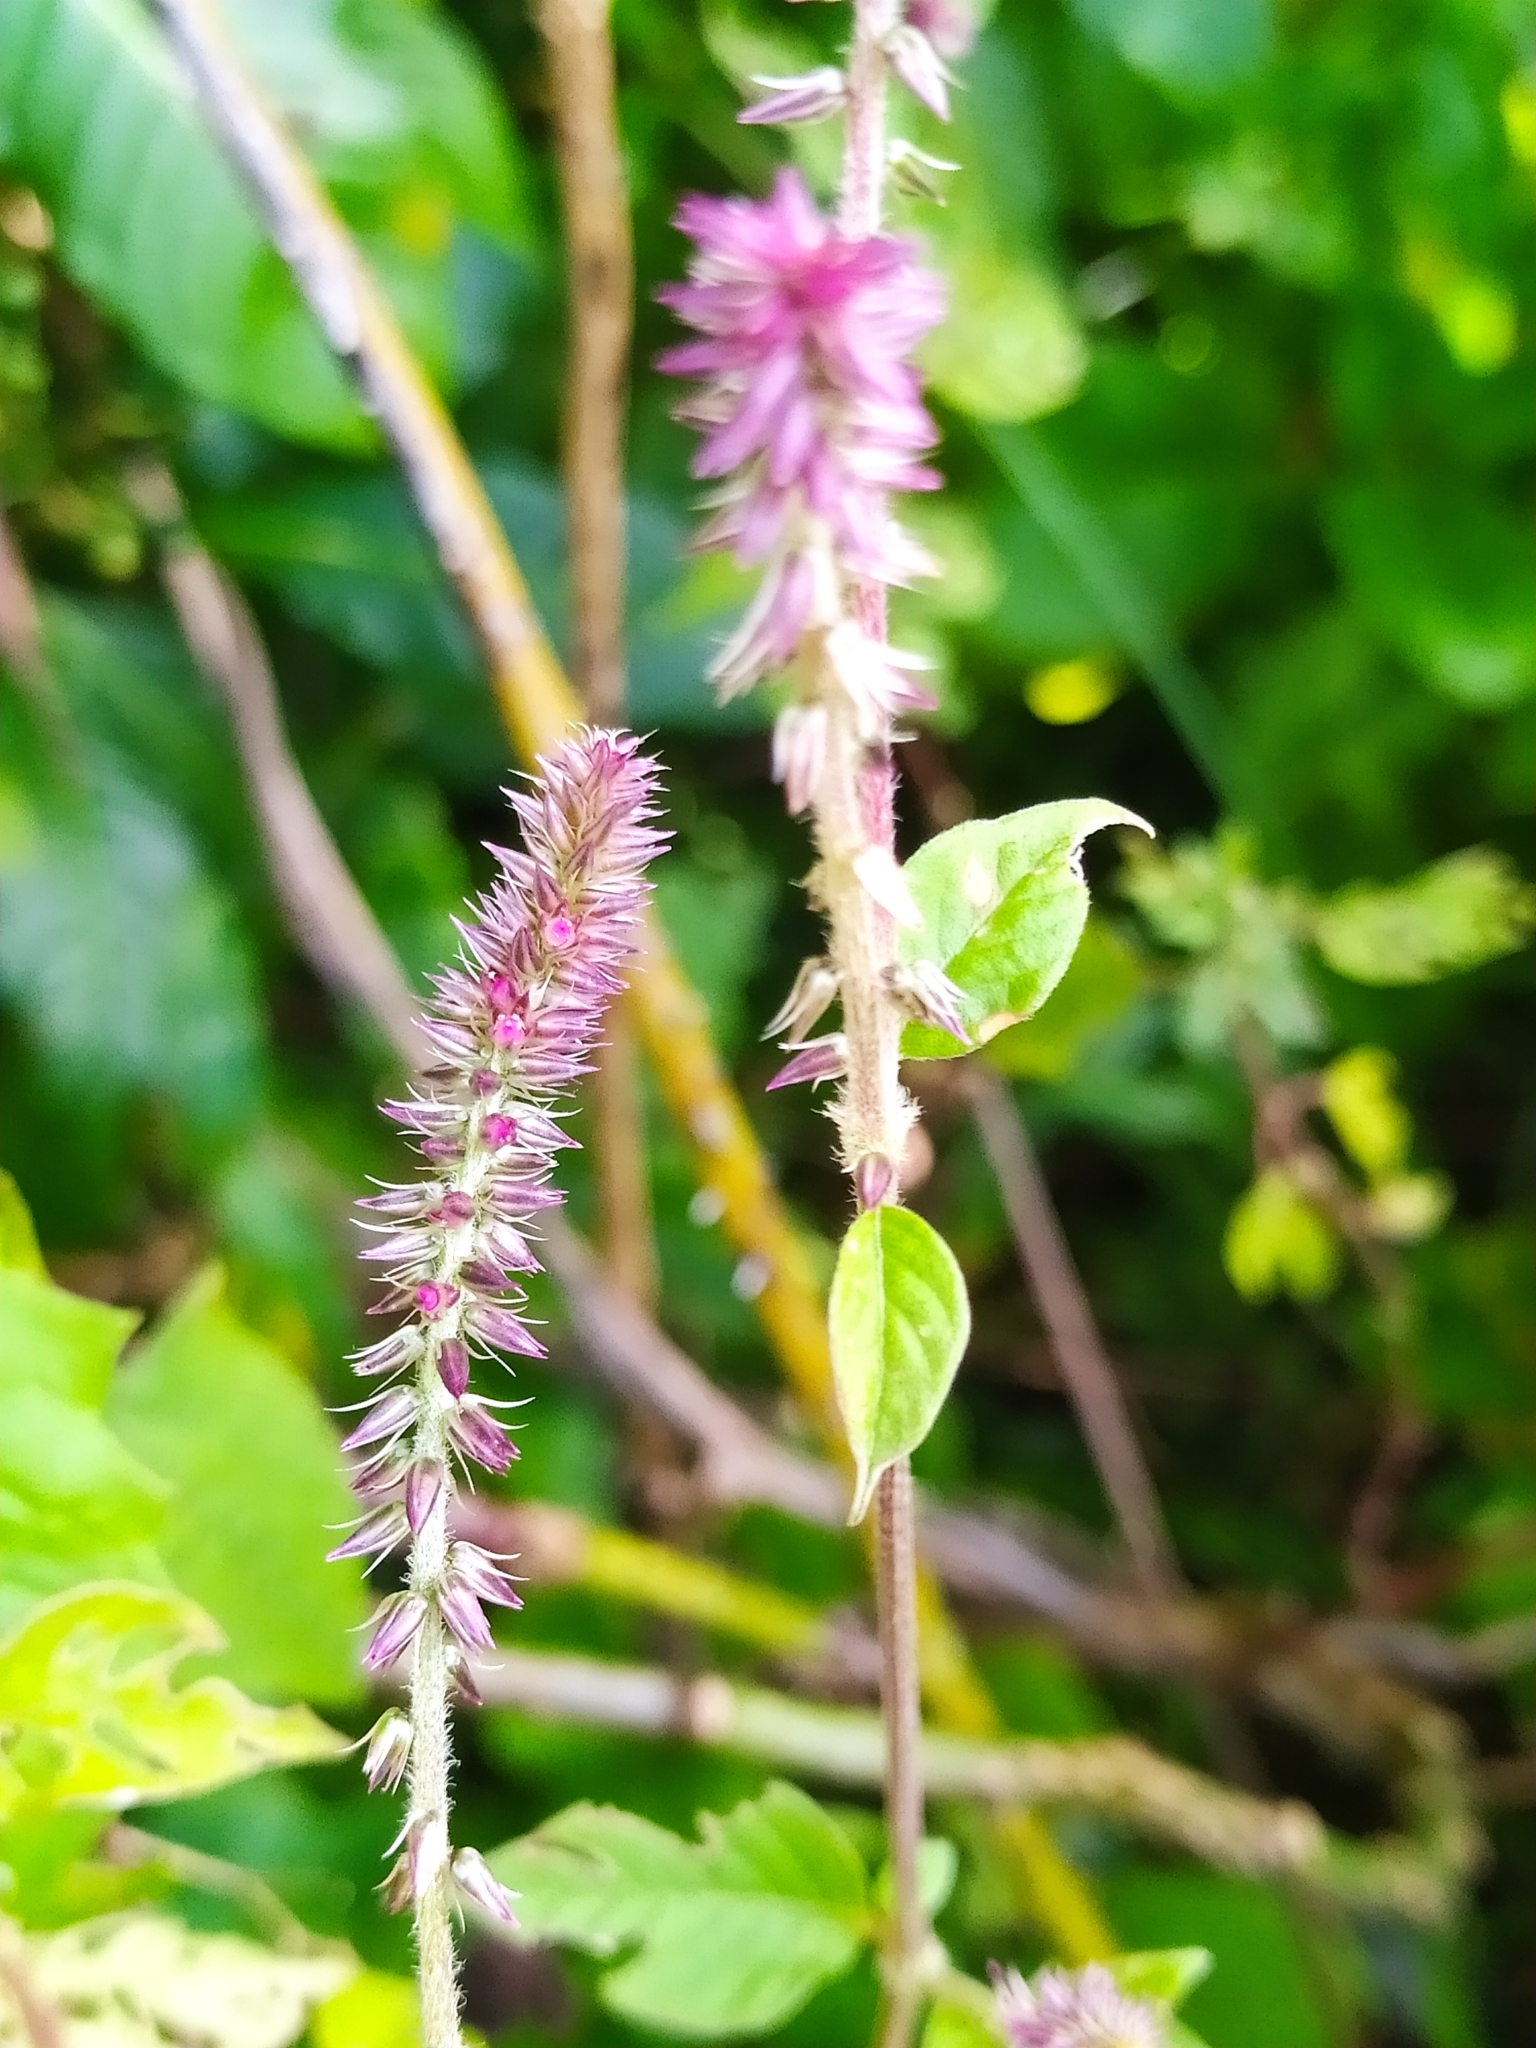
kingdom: Plantae
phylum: Tracheophyta
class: Magnoliopsida
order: Caryophyllales
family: Amaranthaceae
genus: Achyranthes
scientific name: Achyranthes aspera
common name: Devil's horsewhip
